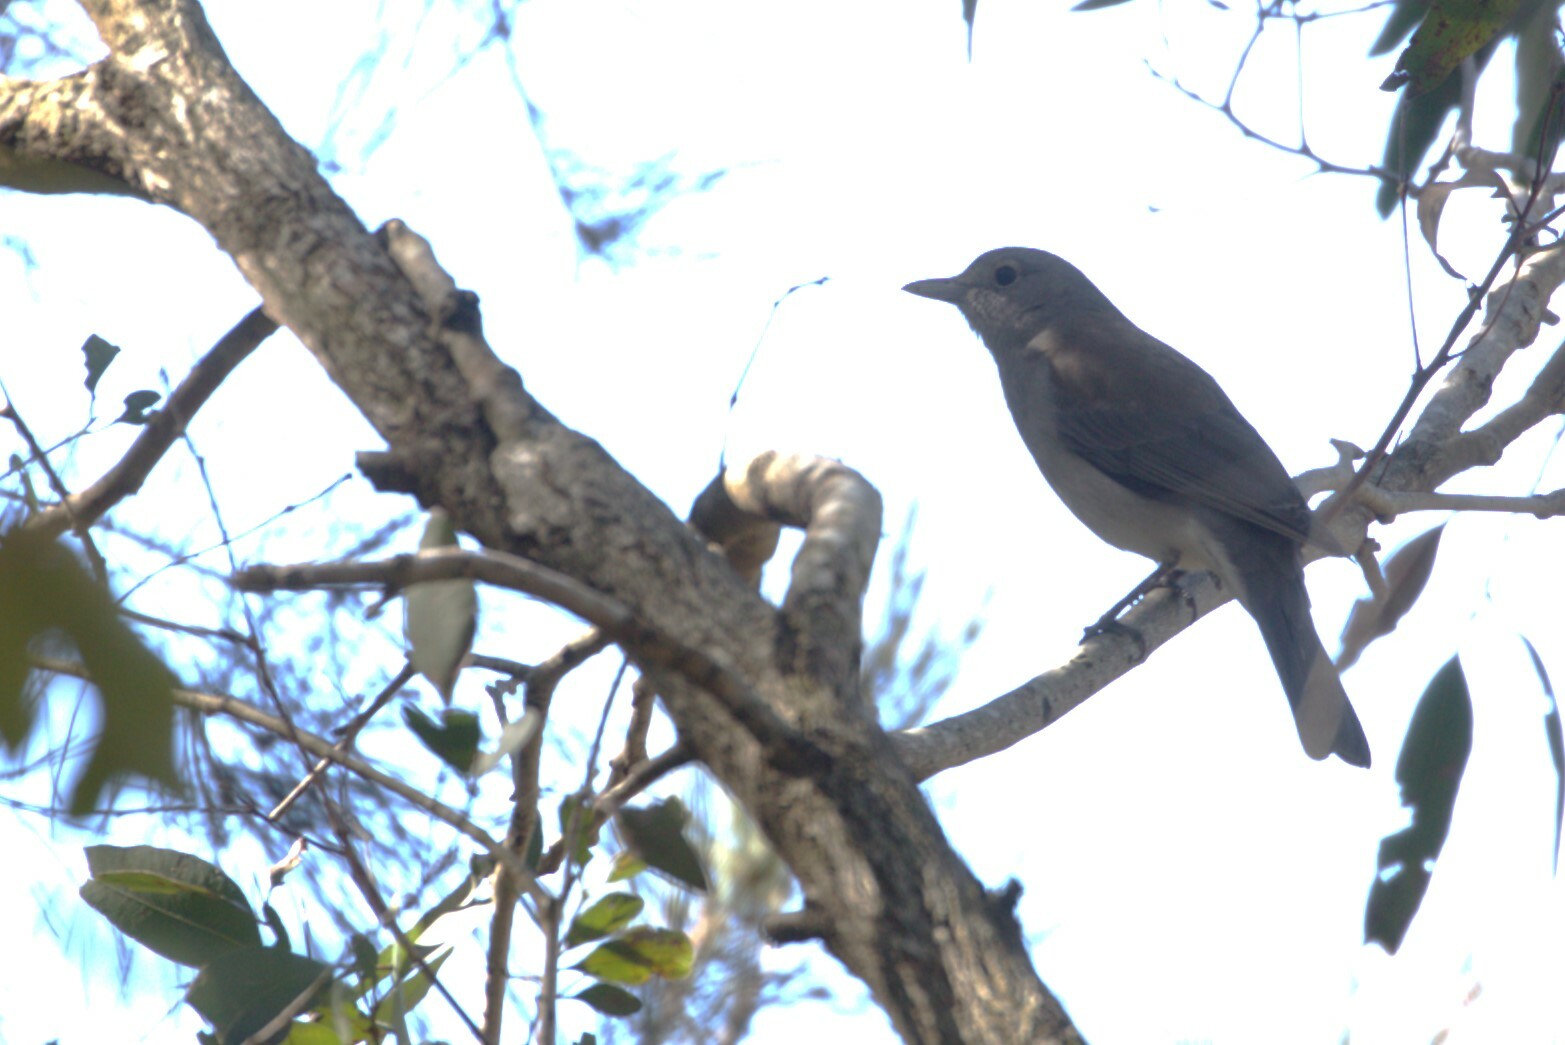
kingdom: Animalia
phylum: Chordata
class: Aves
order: Passeriformes
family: Pachycephalidae
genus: Colluricincla
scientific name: Colluricincla harmonica
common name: Grey shrikethrush
